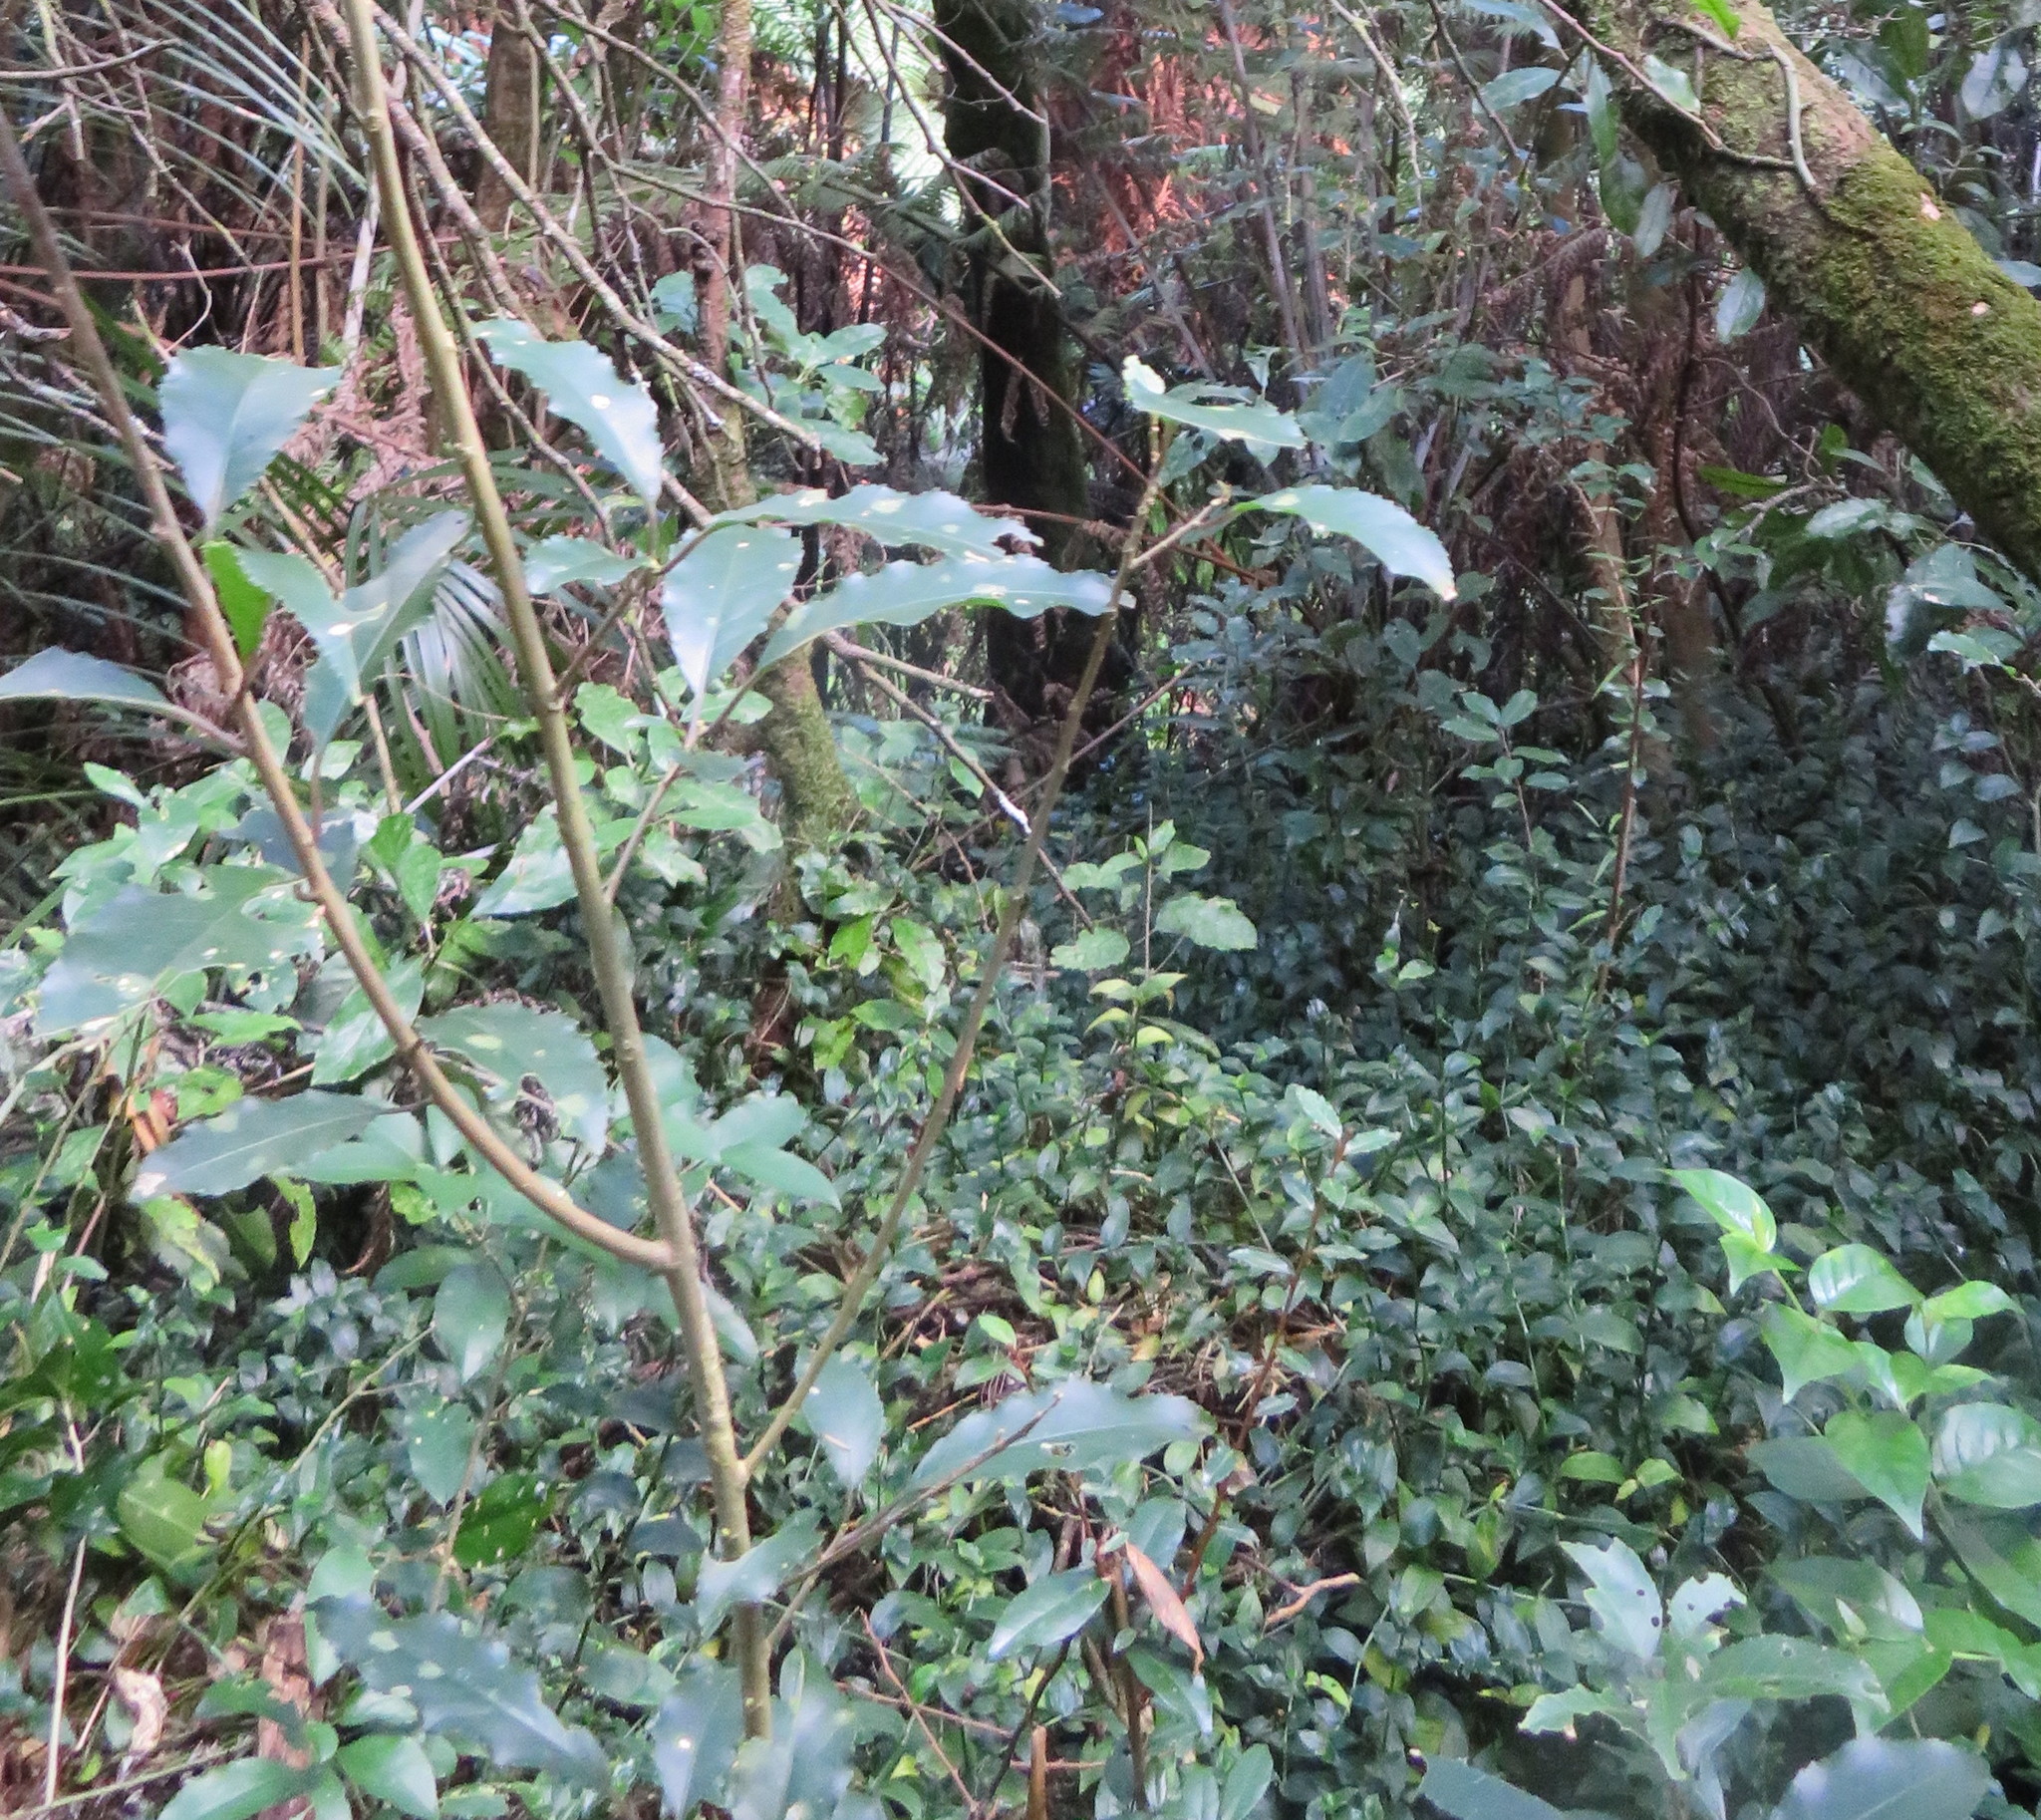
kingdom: Plantae
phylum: Tracheophyta
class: Magnoliopsida
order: Gentianales
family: Rubiaceae
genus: Coprosma
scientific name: Coprosma autumnalis
